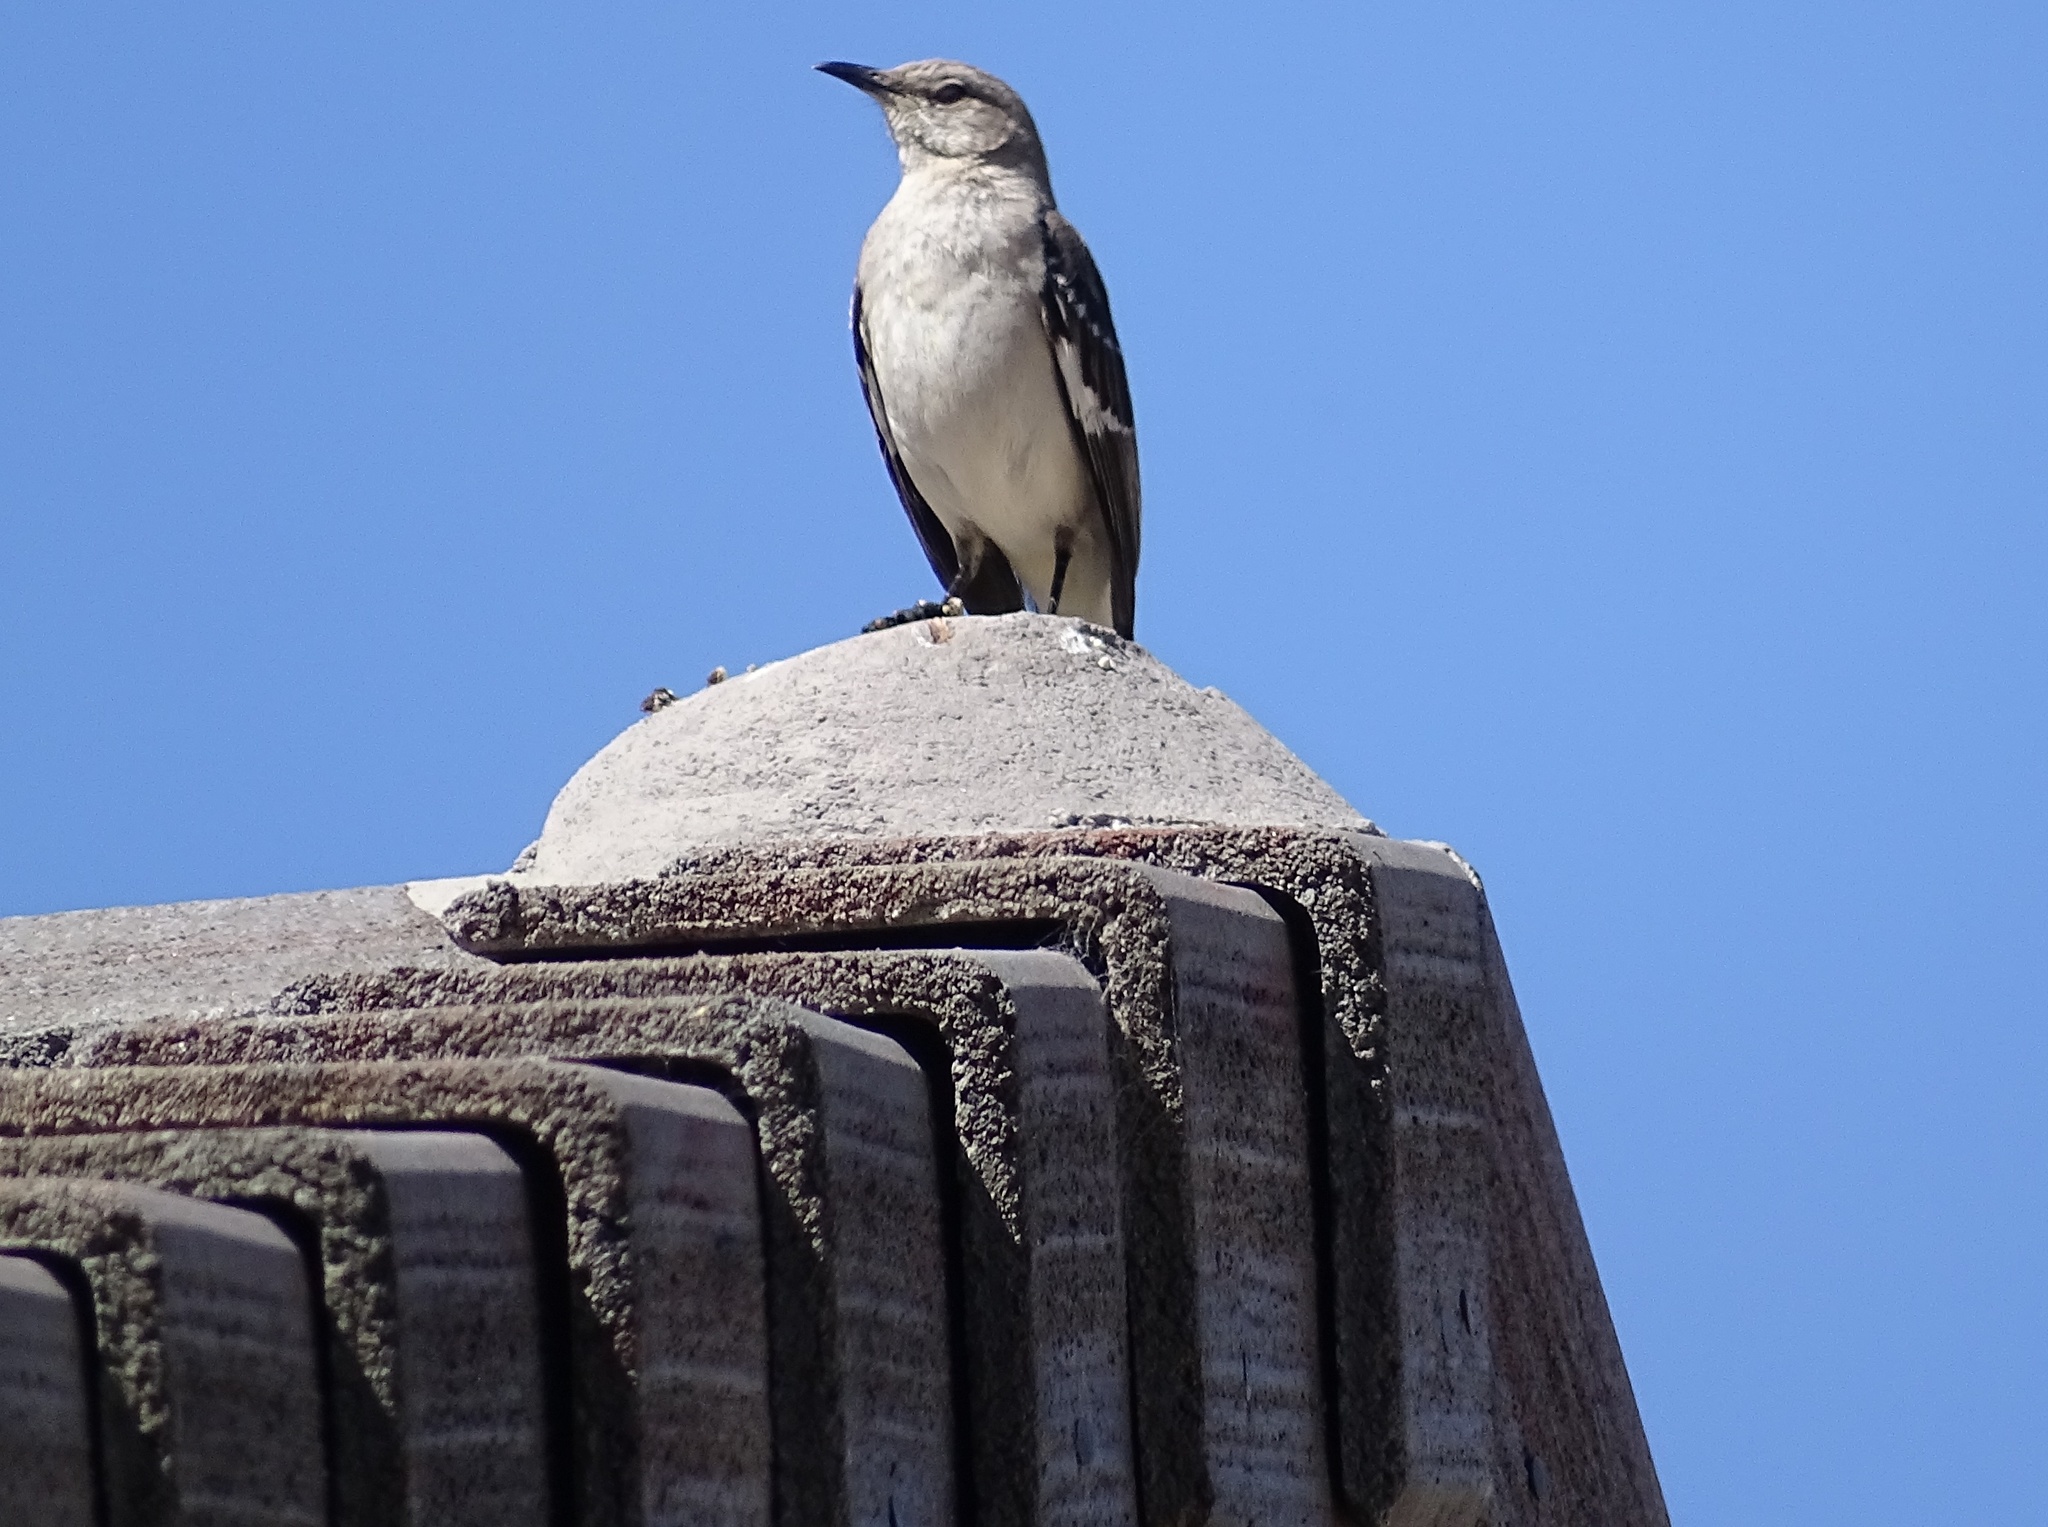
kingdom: Animalia
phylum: Chordata
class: Aves
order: Passeriformes
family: Mimidae
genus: Mimus
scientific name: Mimus polyglottos
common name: Northern mockingbird
